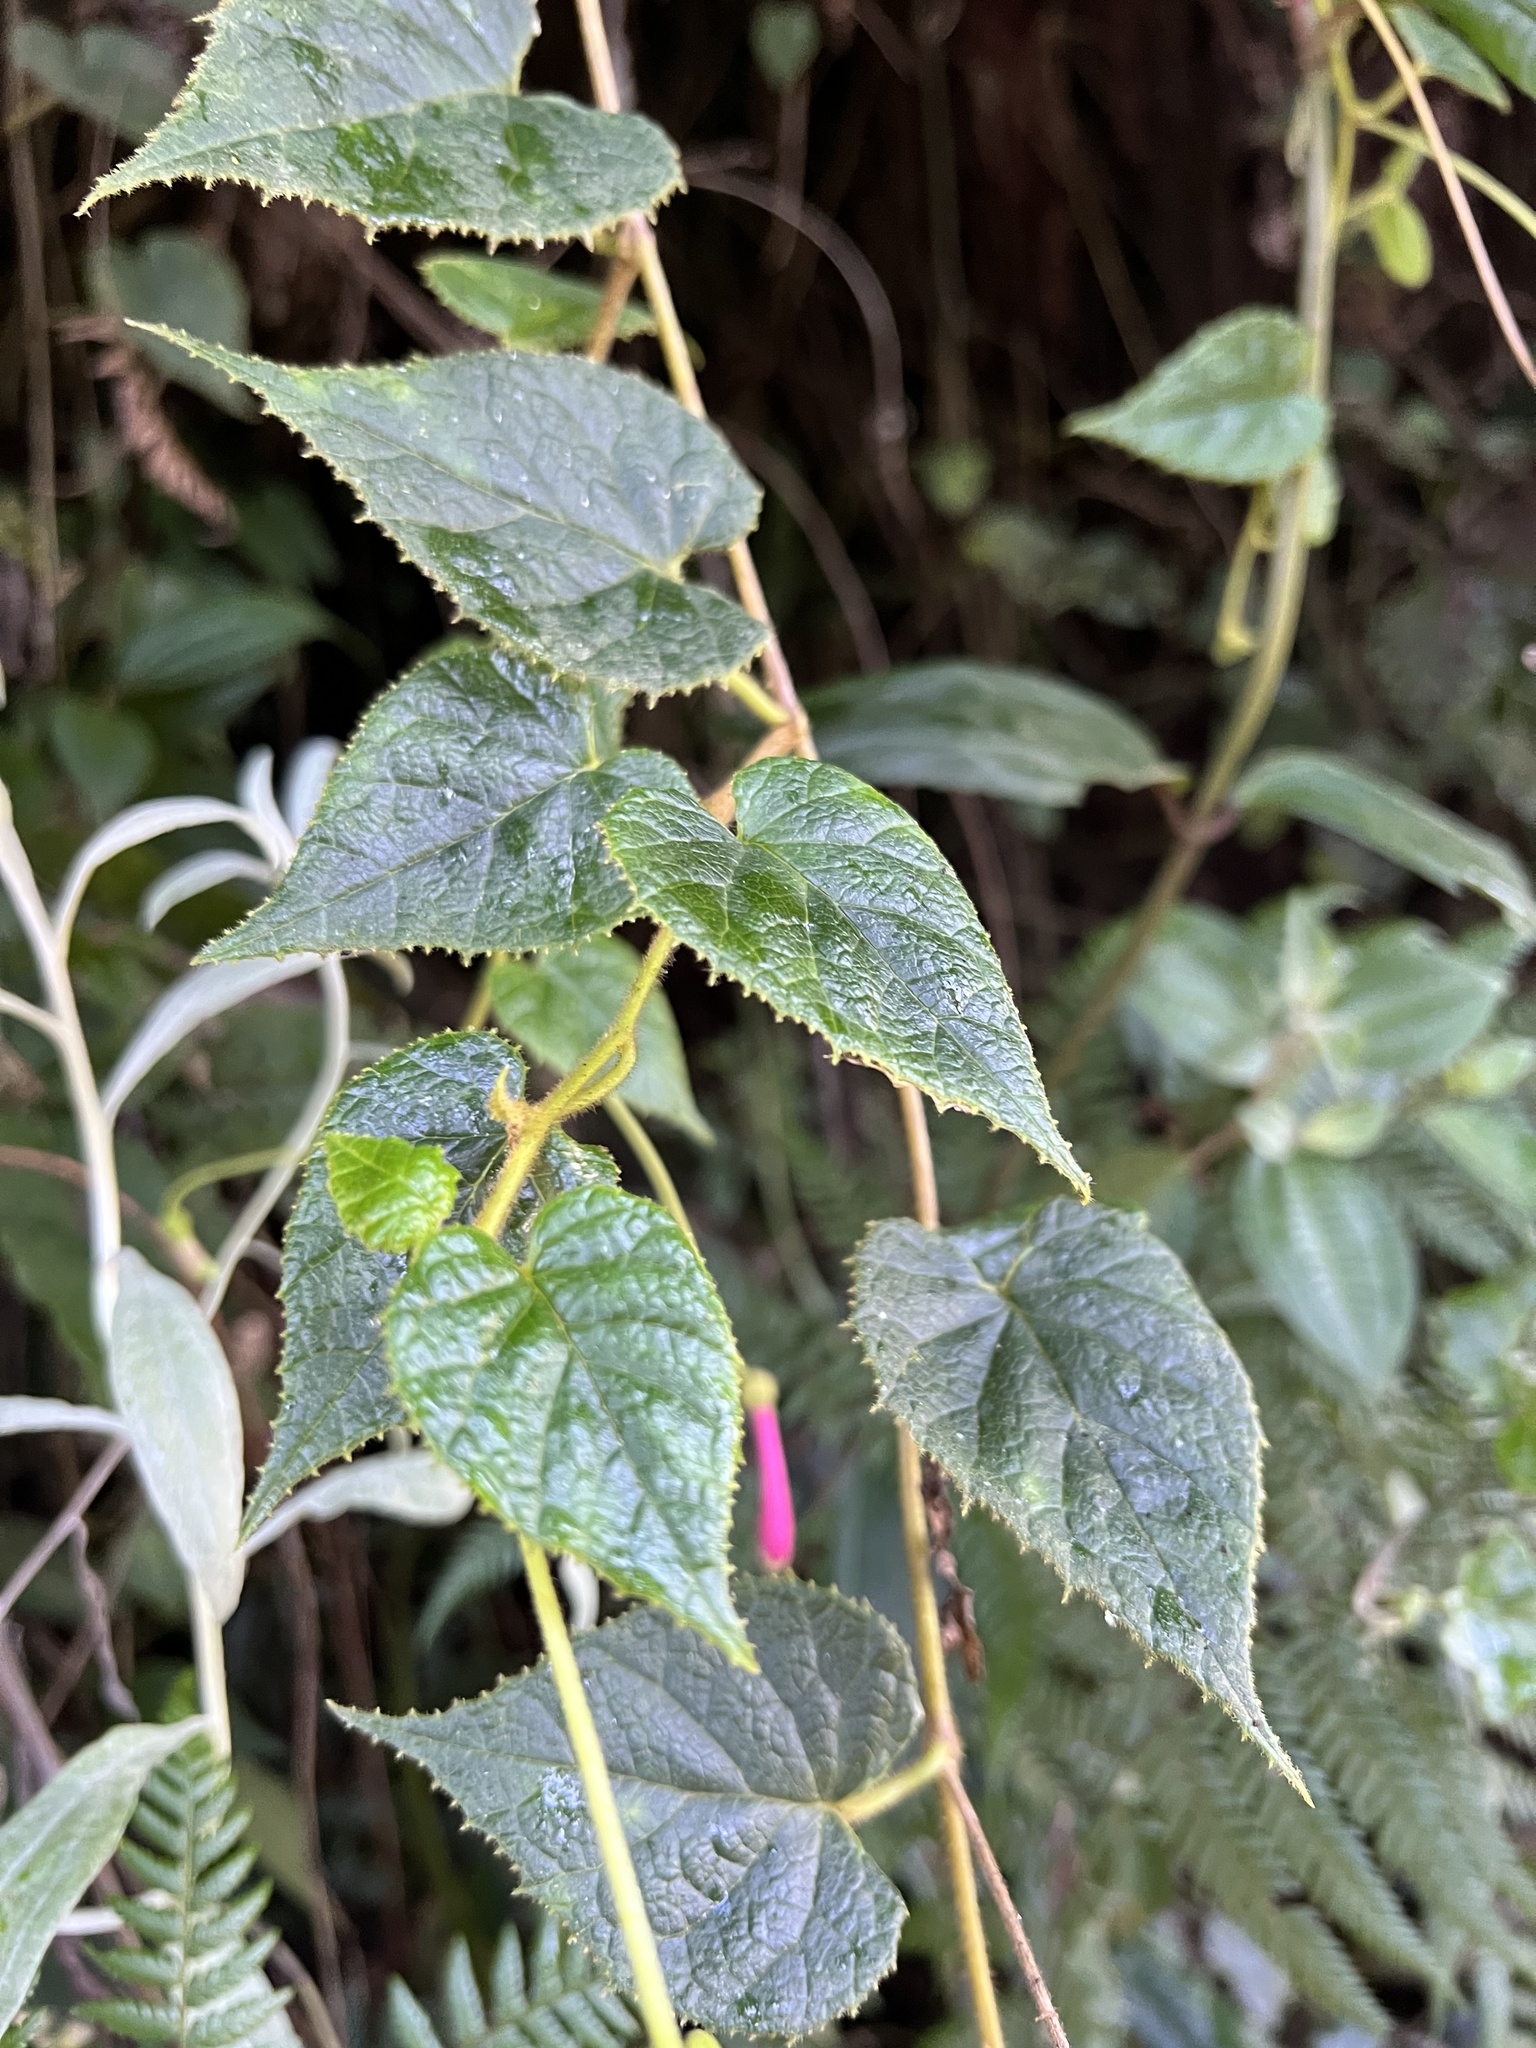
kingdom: Plantae
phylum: Tracheophyta
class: Magnoliopsida
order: Asterales
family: Campanulaceae
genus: Siphocampylus
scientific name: Siphocampylus benthamianus
